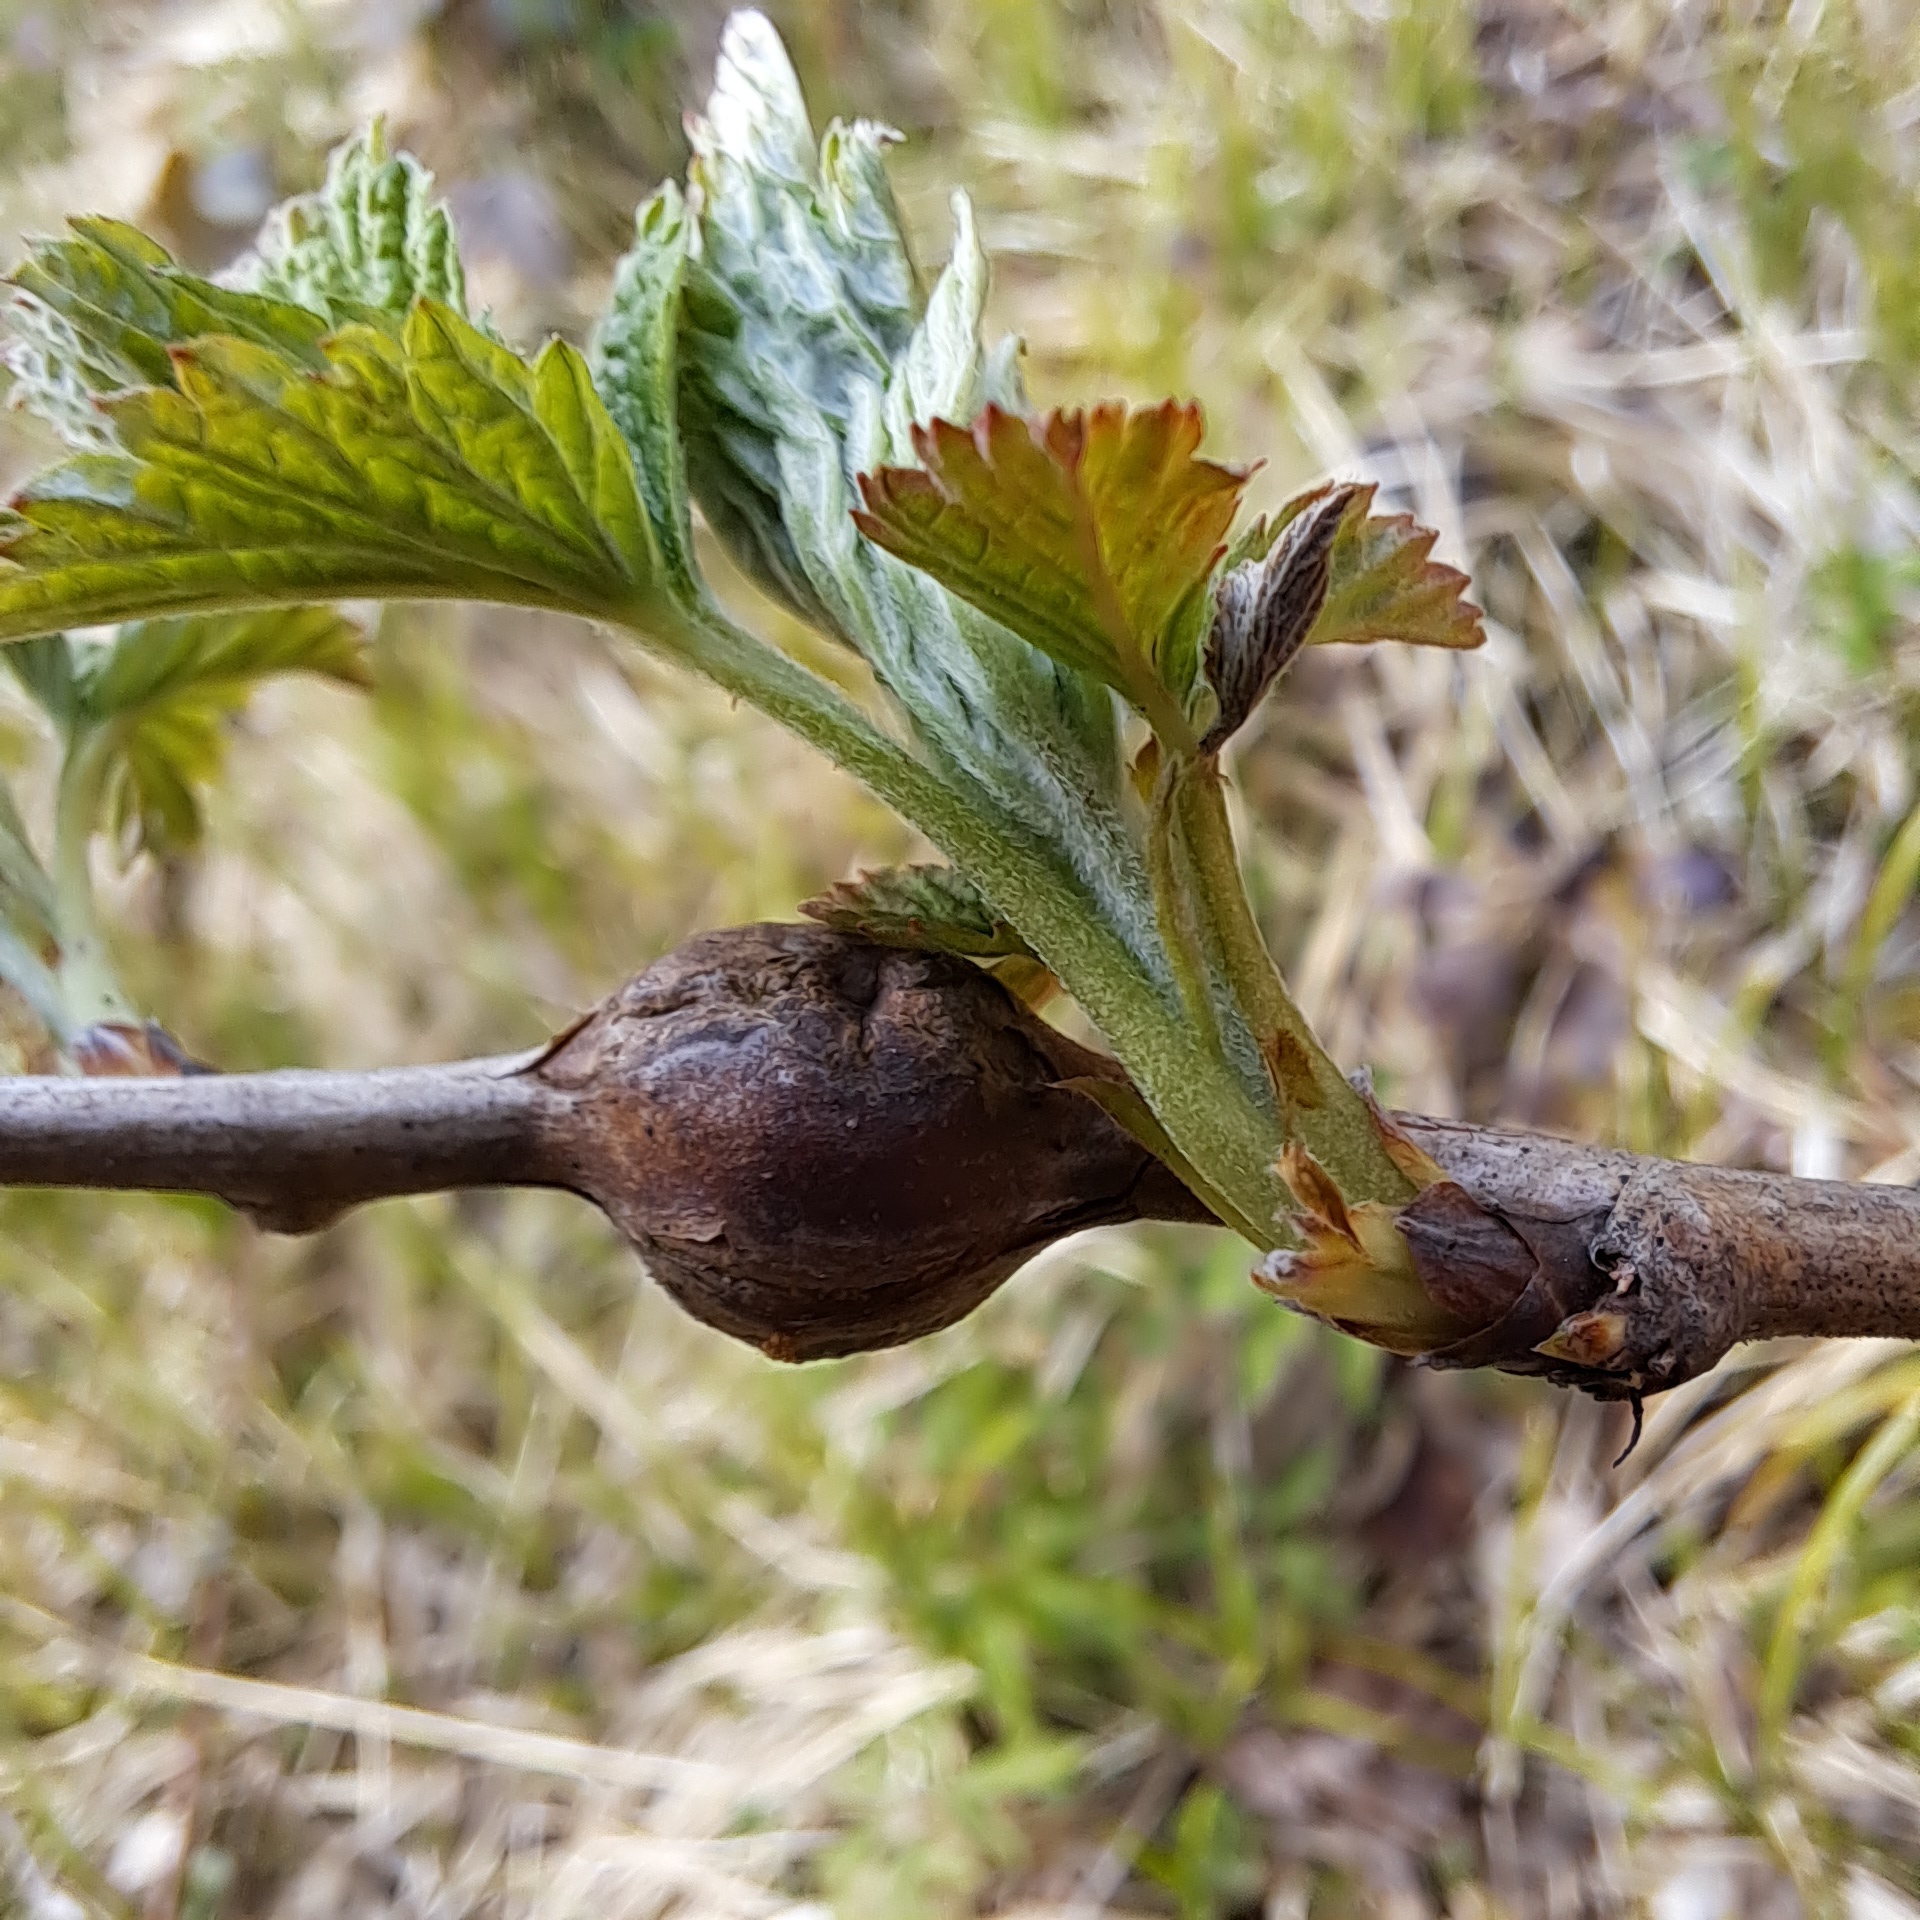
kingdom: Animalia
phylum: Arthropoda
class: Insecta
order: Diptera
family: Cecidomyiidae
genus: Lasioptera
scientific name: Lasioptera rubi
